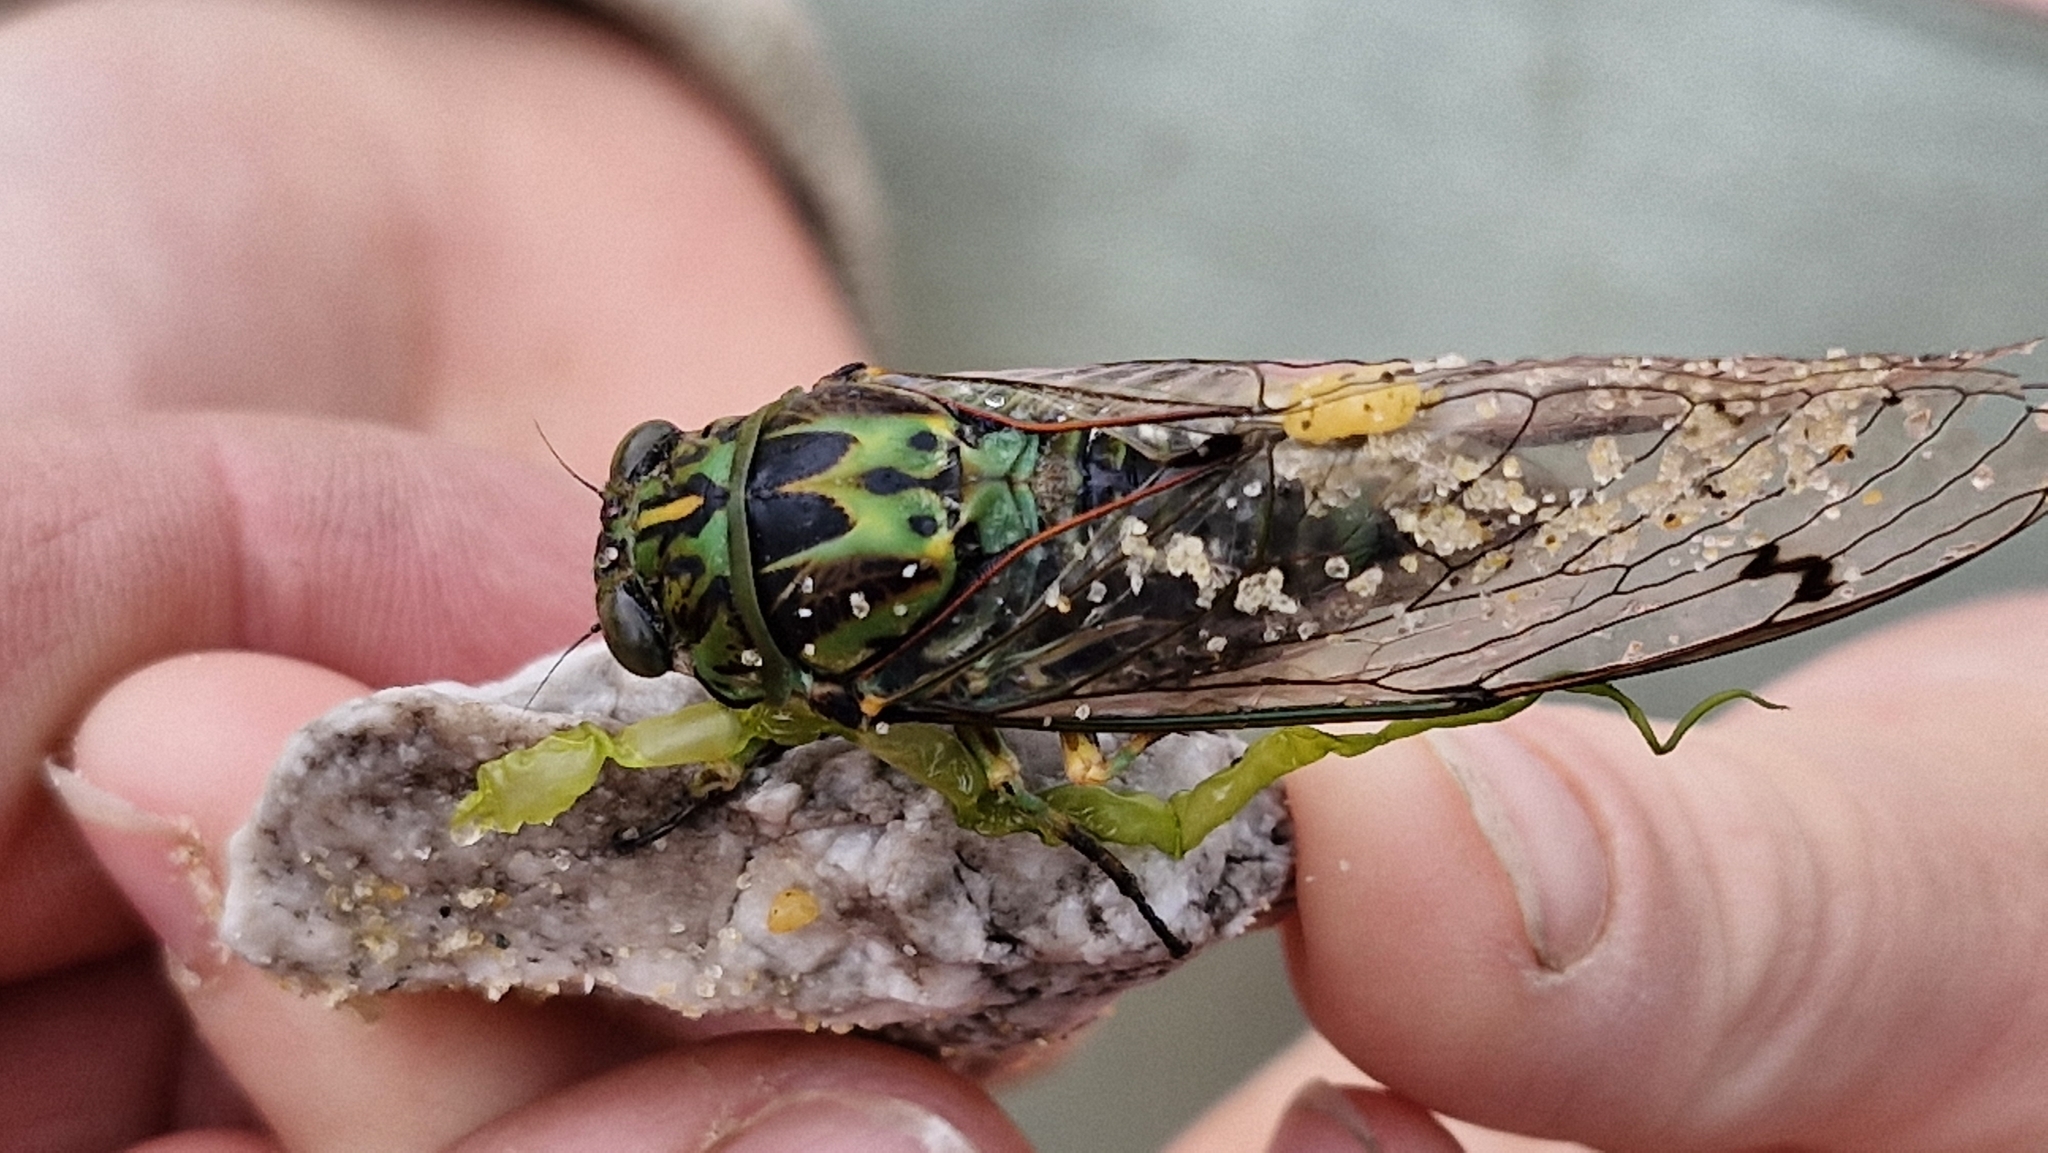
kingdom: Animalia
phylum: Arthropoda
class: Insecta
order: Hemiptera
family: Cicadidae
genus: Amphipsalta
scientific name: Amphipsalta zelandica
